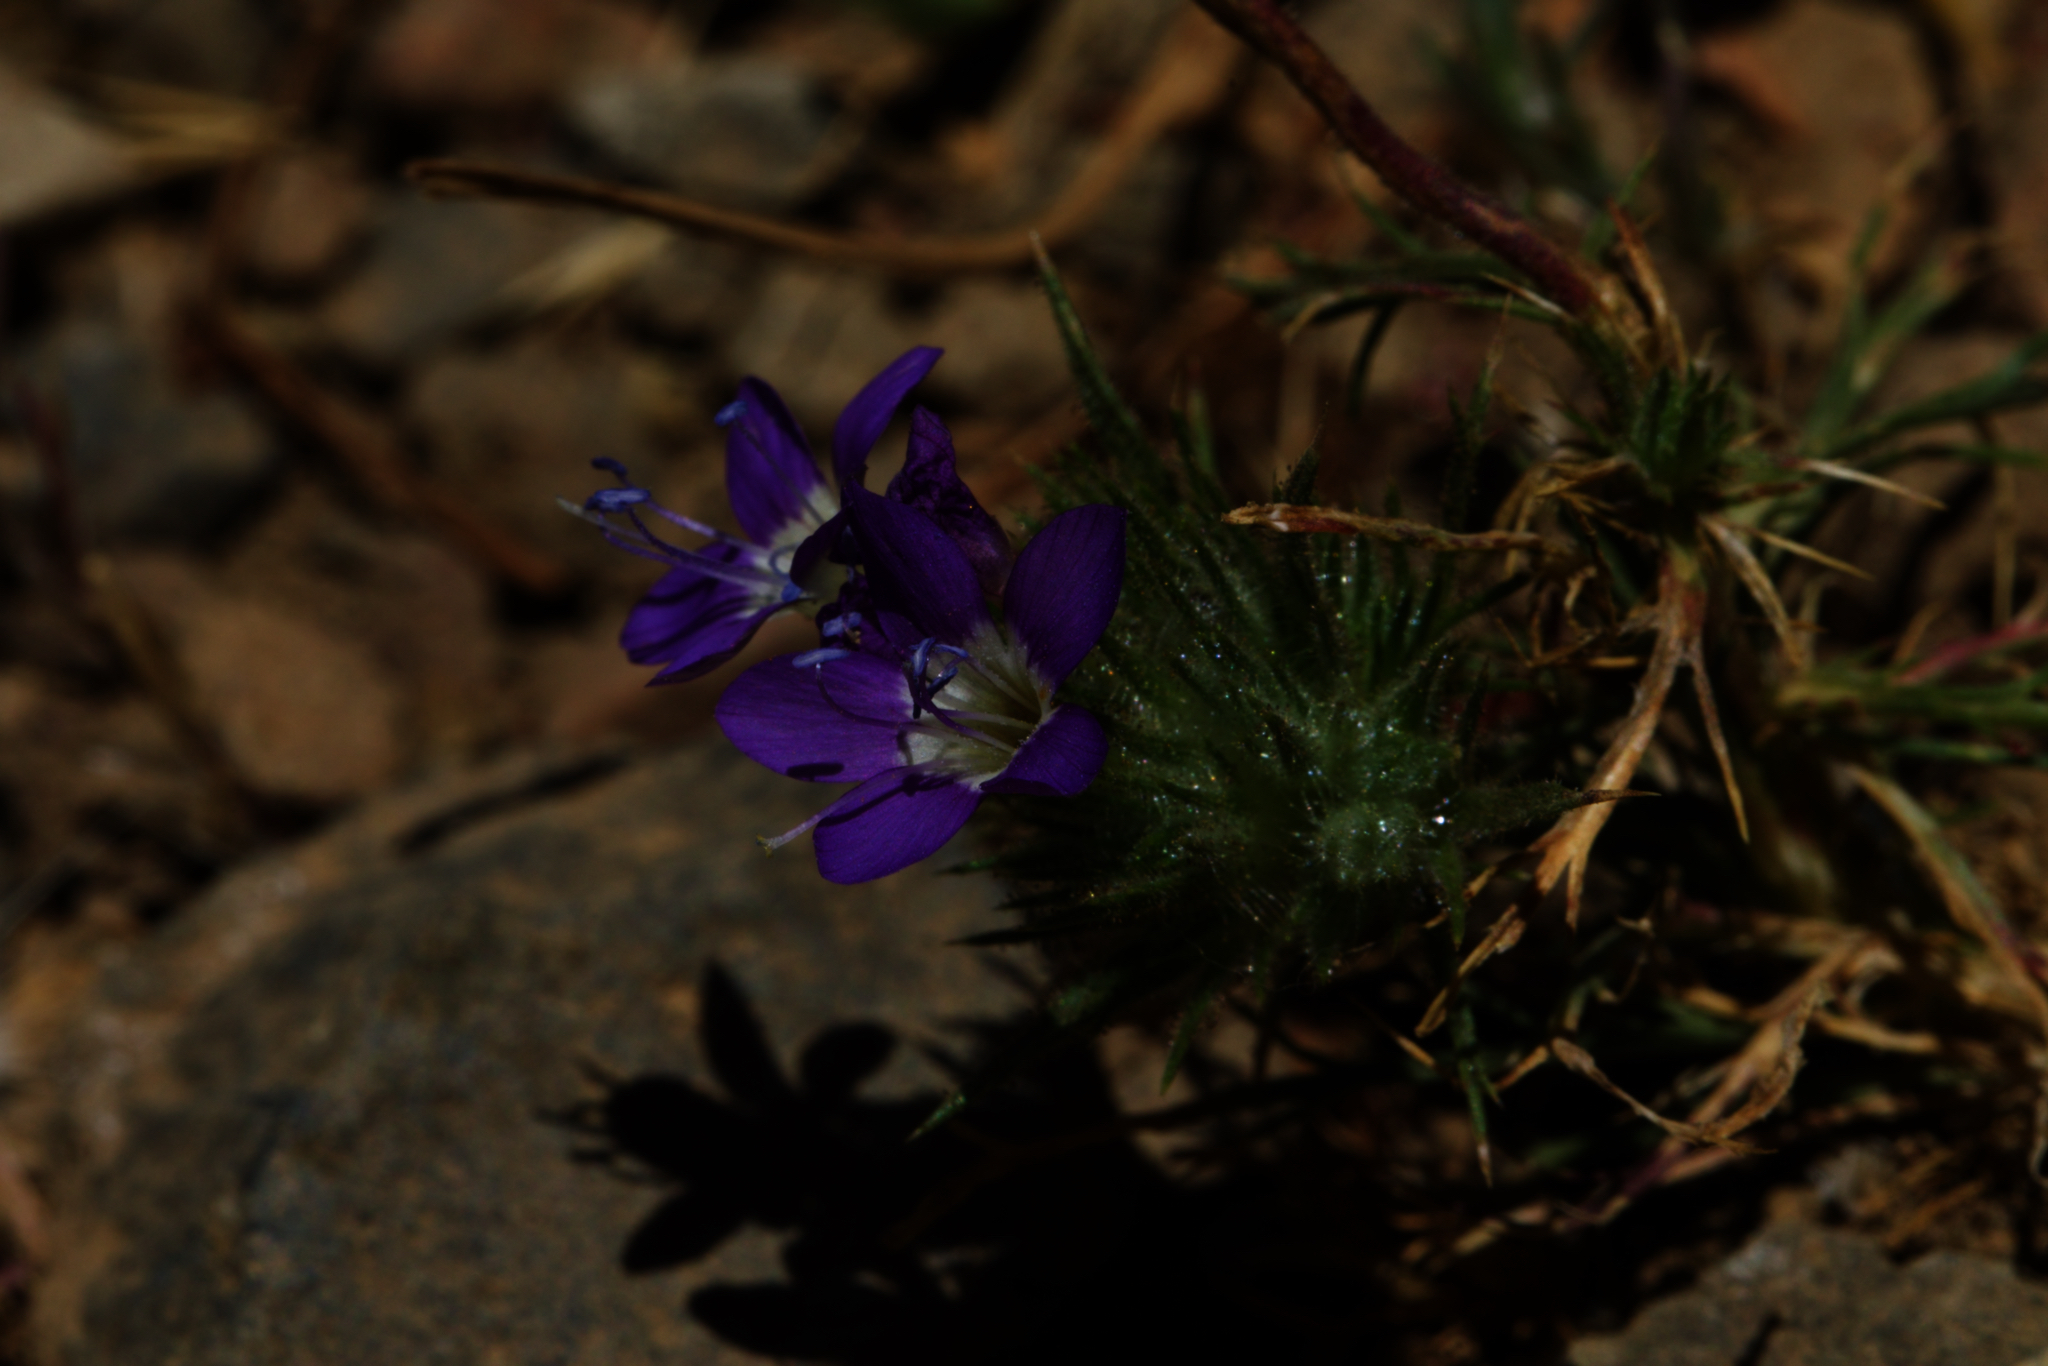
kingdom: Plantae
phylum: Tracheophyta
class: Magnoliopsida
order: Ericales
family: Polemoniaceae
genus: Navarretia
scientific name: Navarretia viscidula
